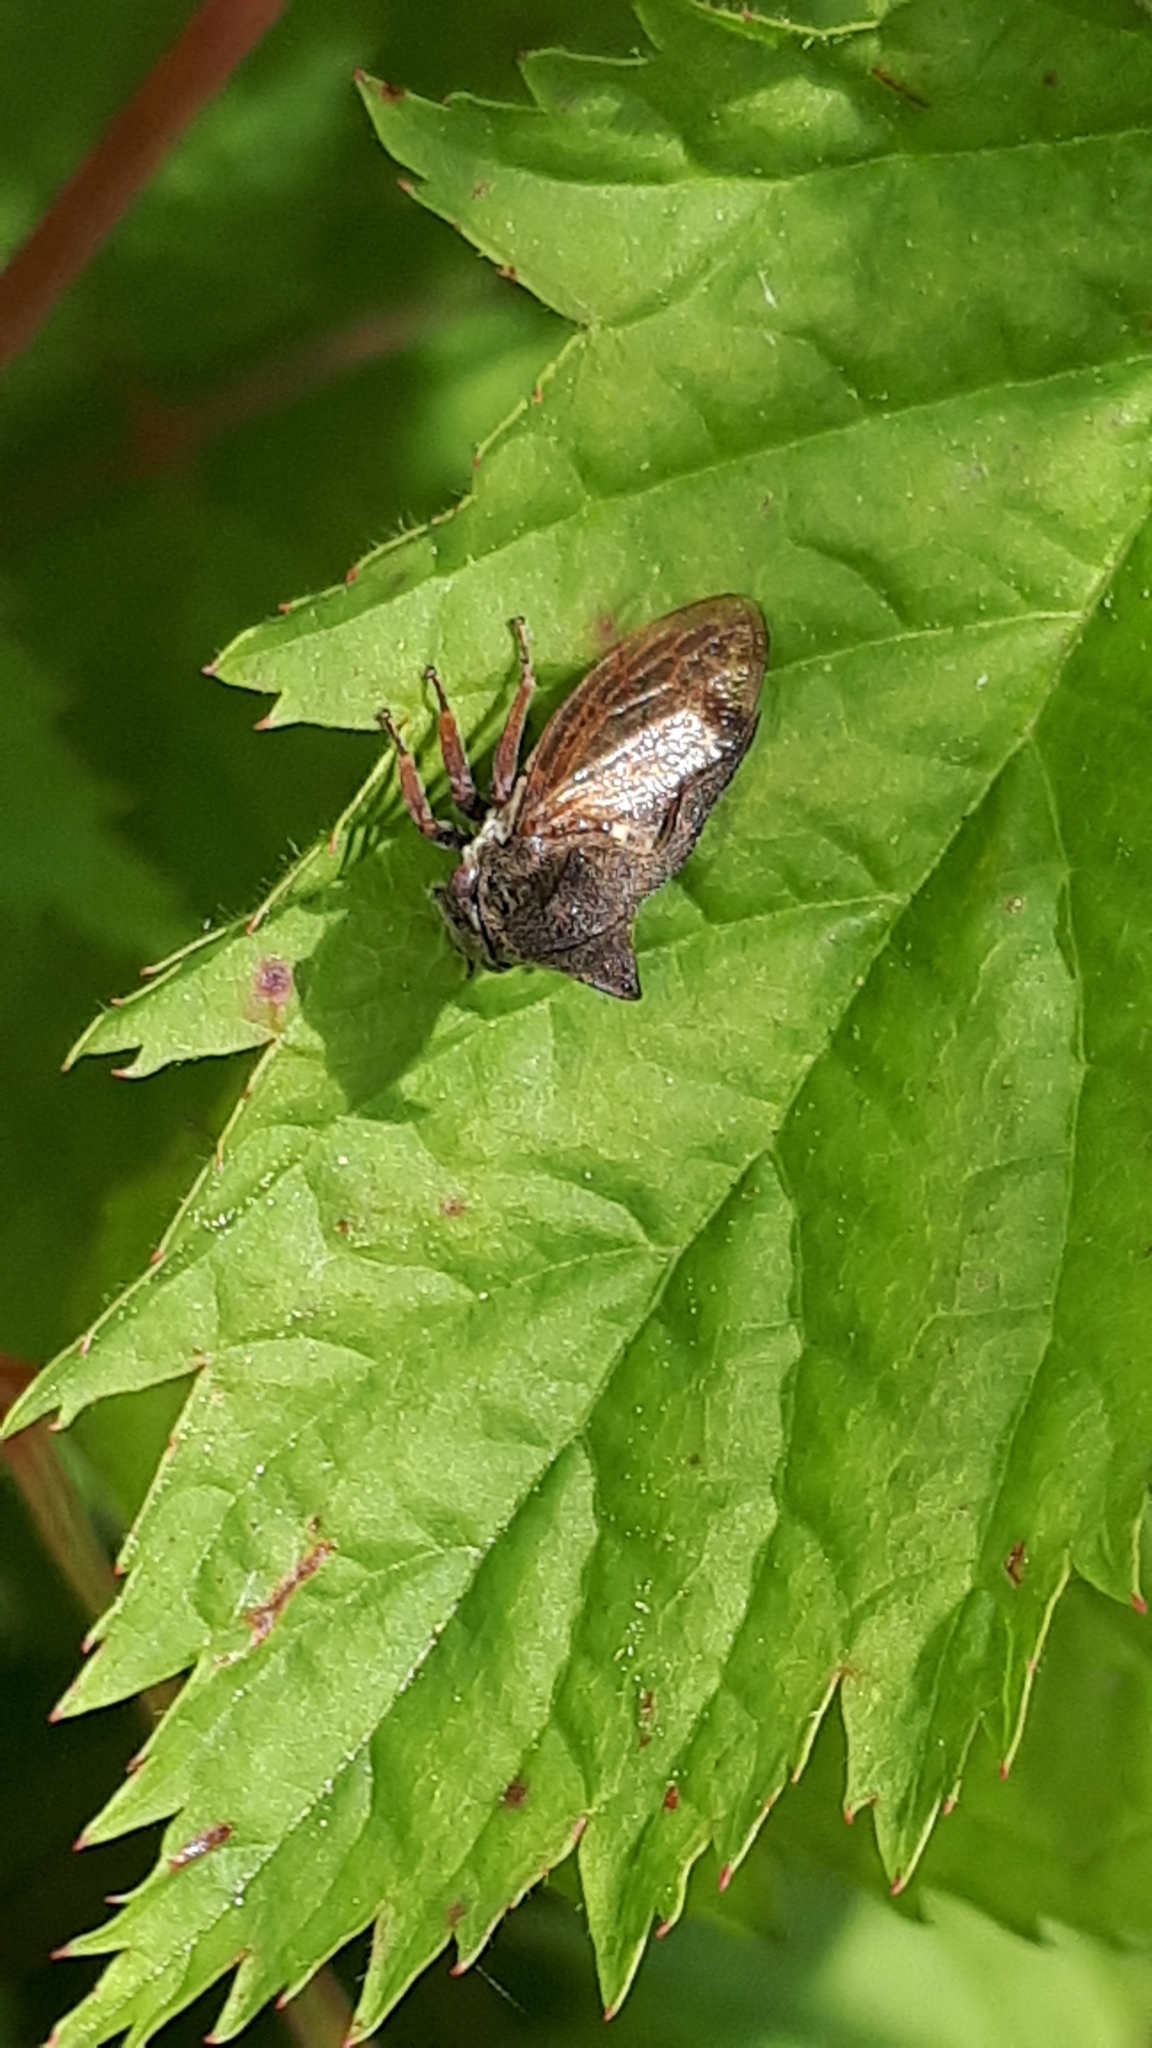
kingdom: Animalia
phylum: Arthropoda
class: Insecta
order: Hemiptera
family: Membracidae
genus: Centrotus
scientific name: Centrotus cornuta
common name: Treehopper
